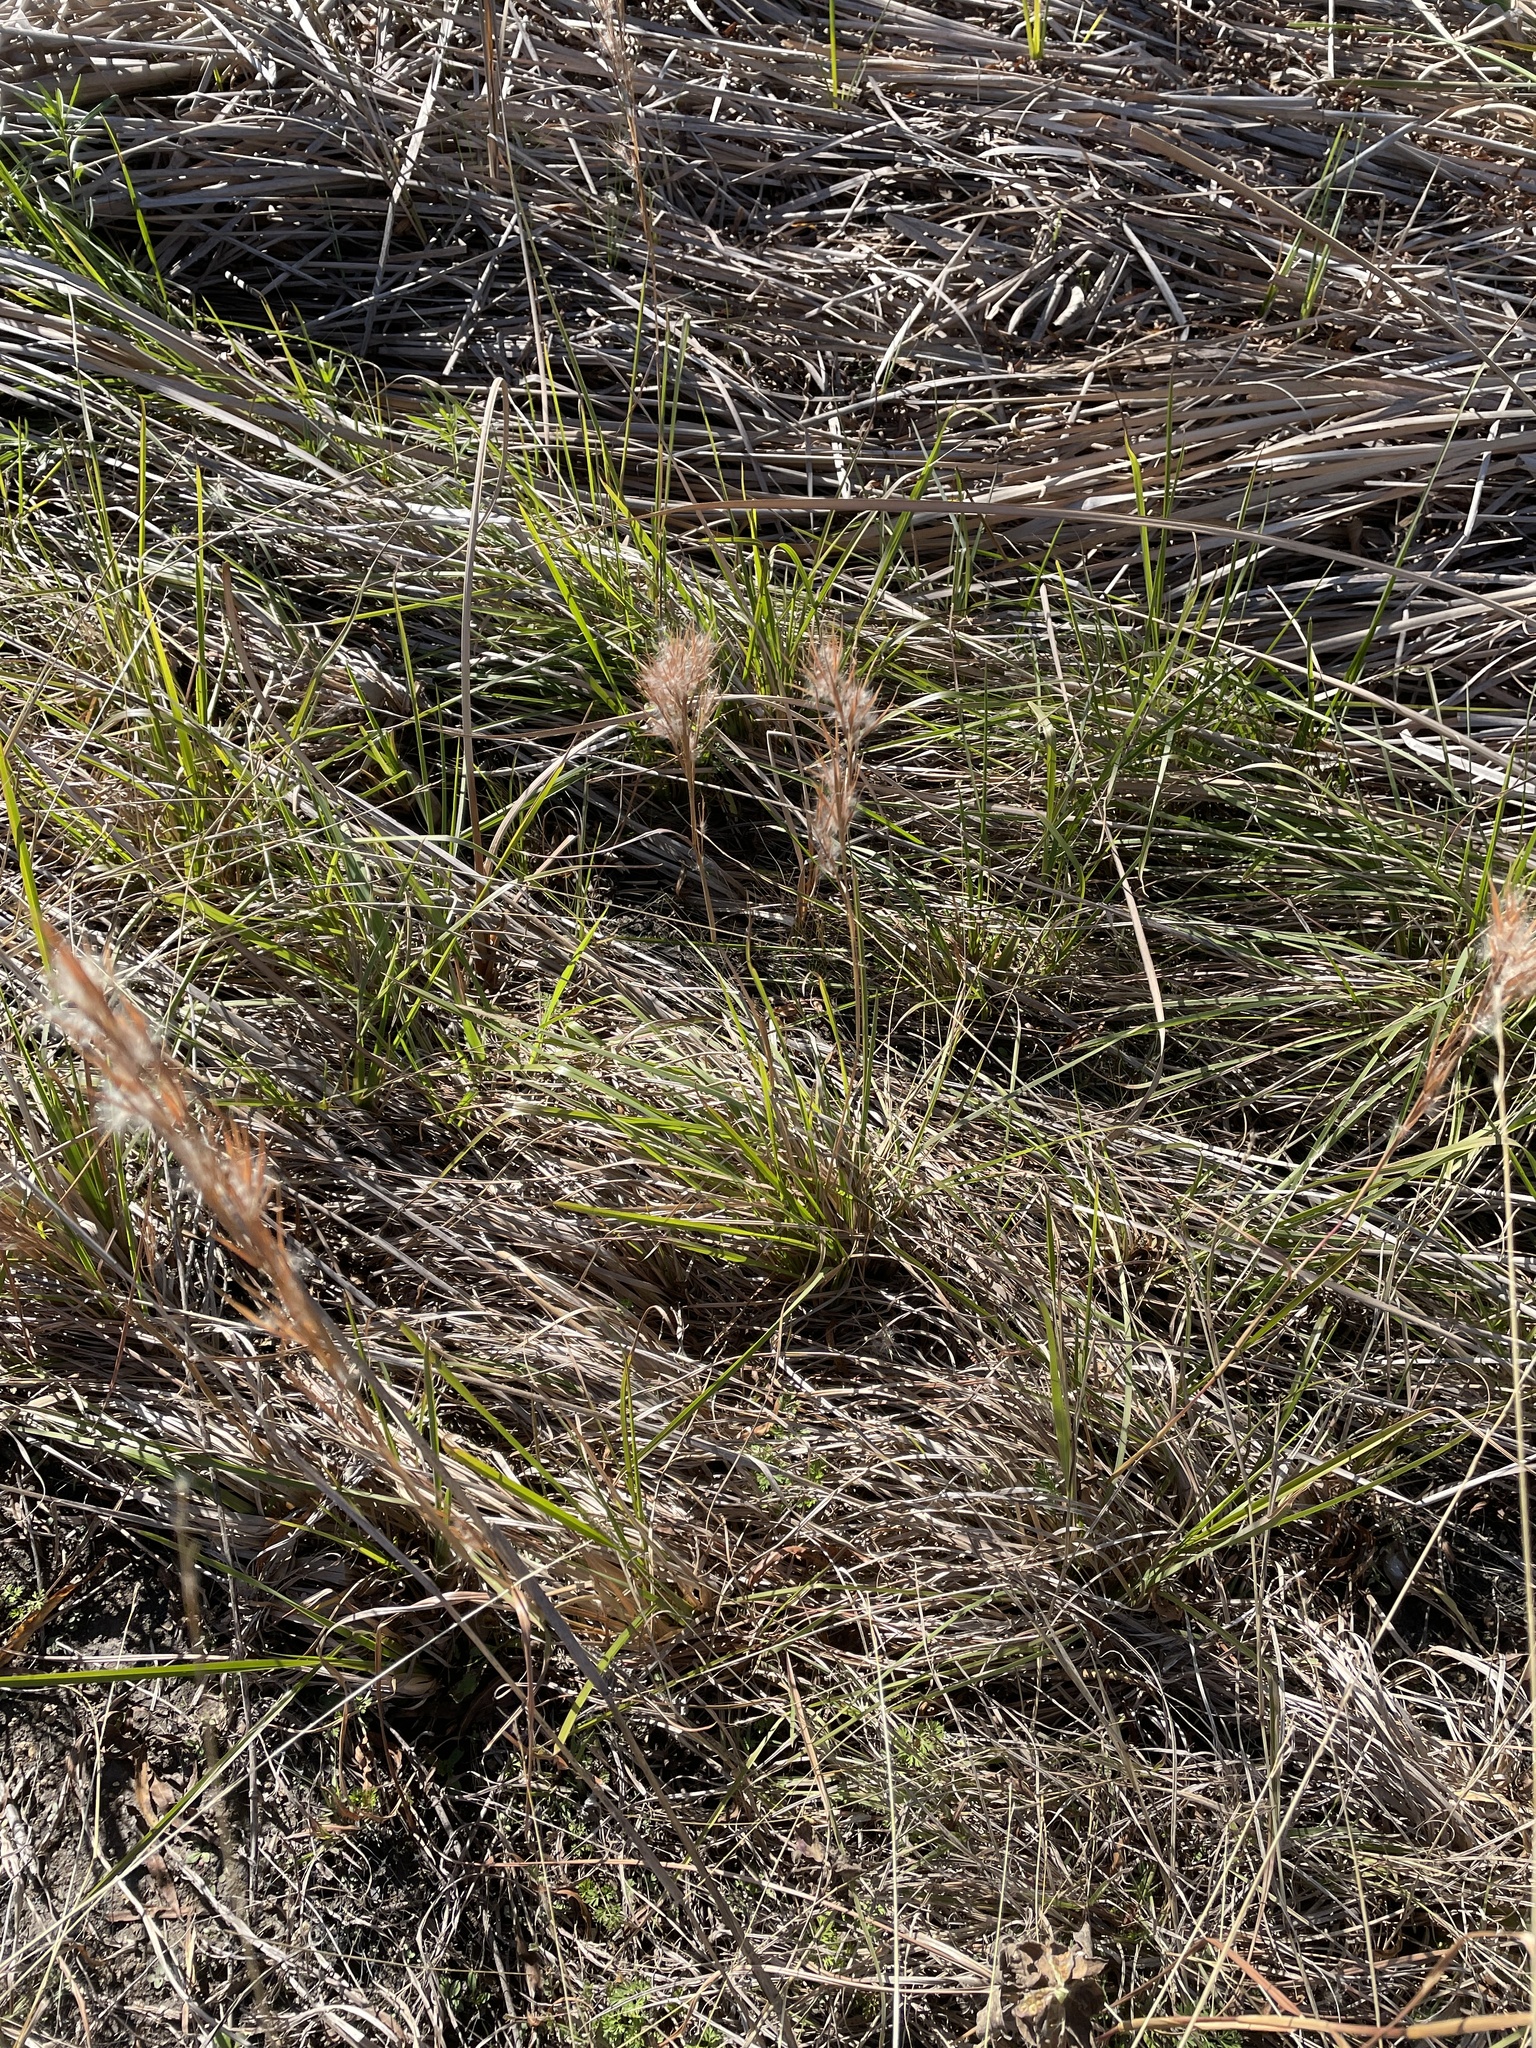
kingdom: Plantae
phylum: Tracheophyta
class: Liliopsida
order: Poales
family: Poaceae
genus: Andropogon
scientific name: Andropogon tenuispatheus
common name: Bushy bluestem
